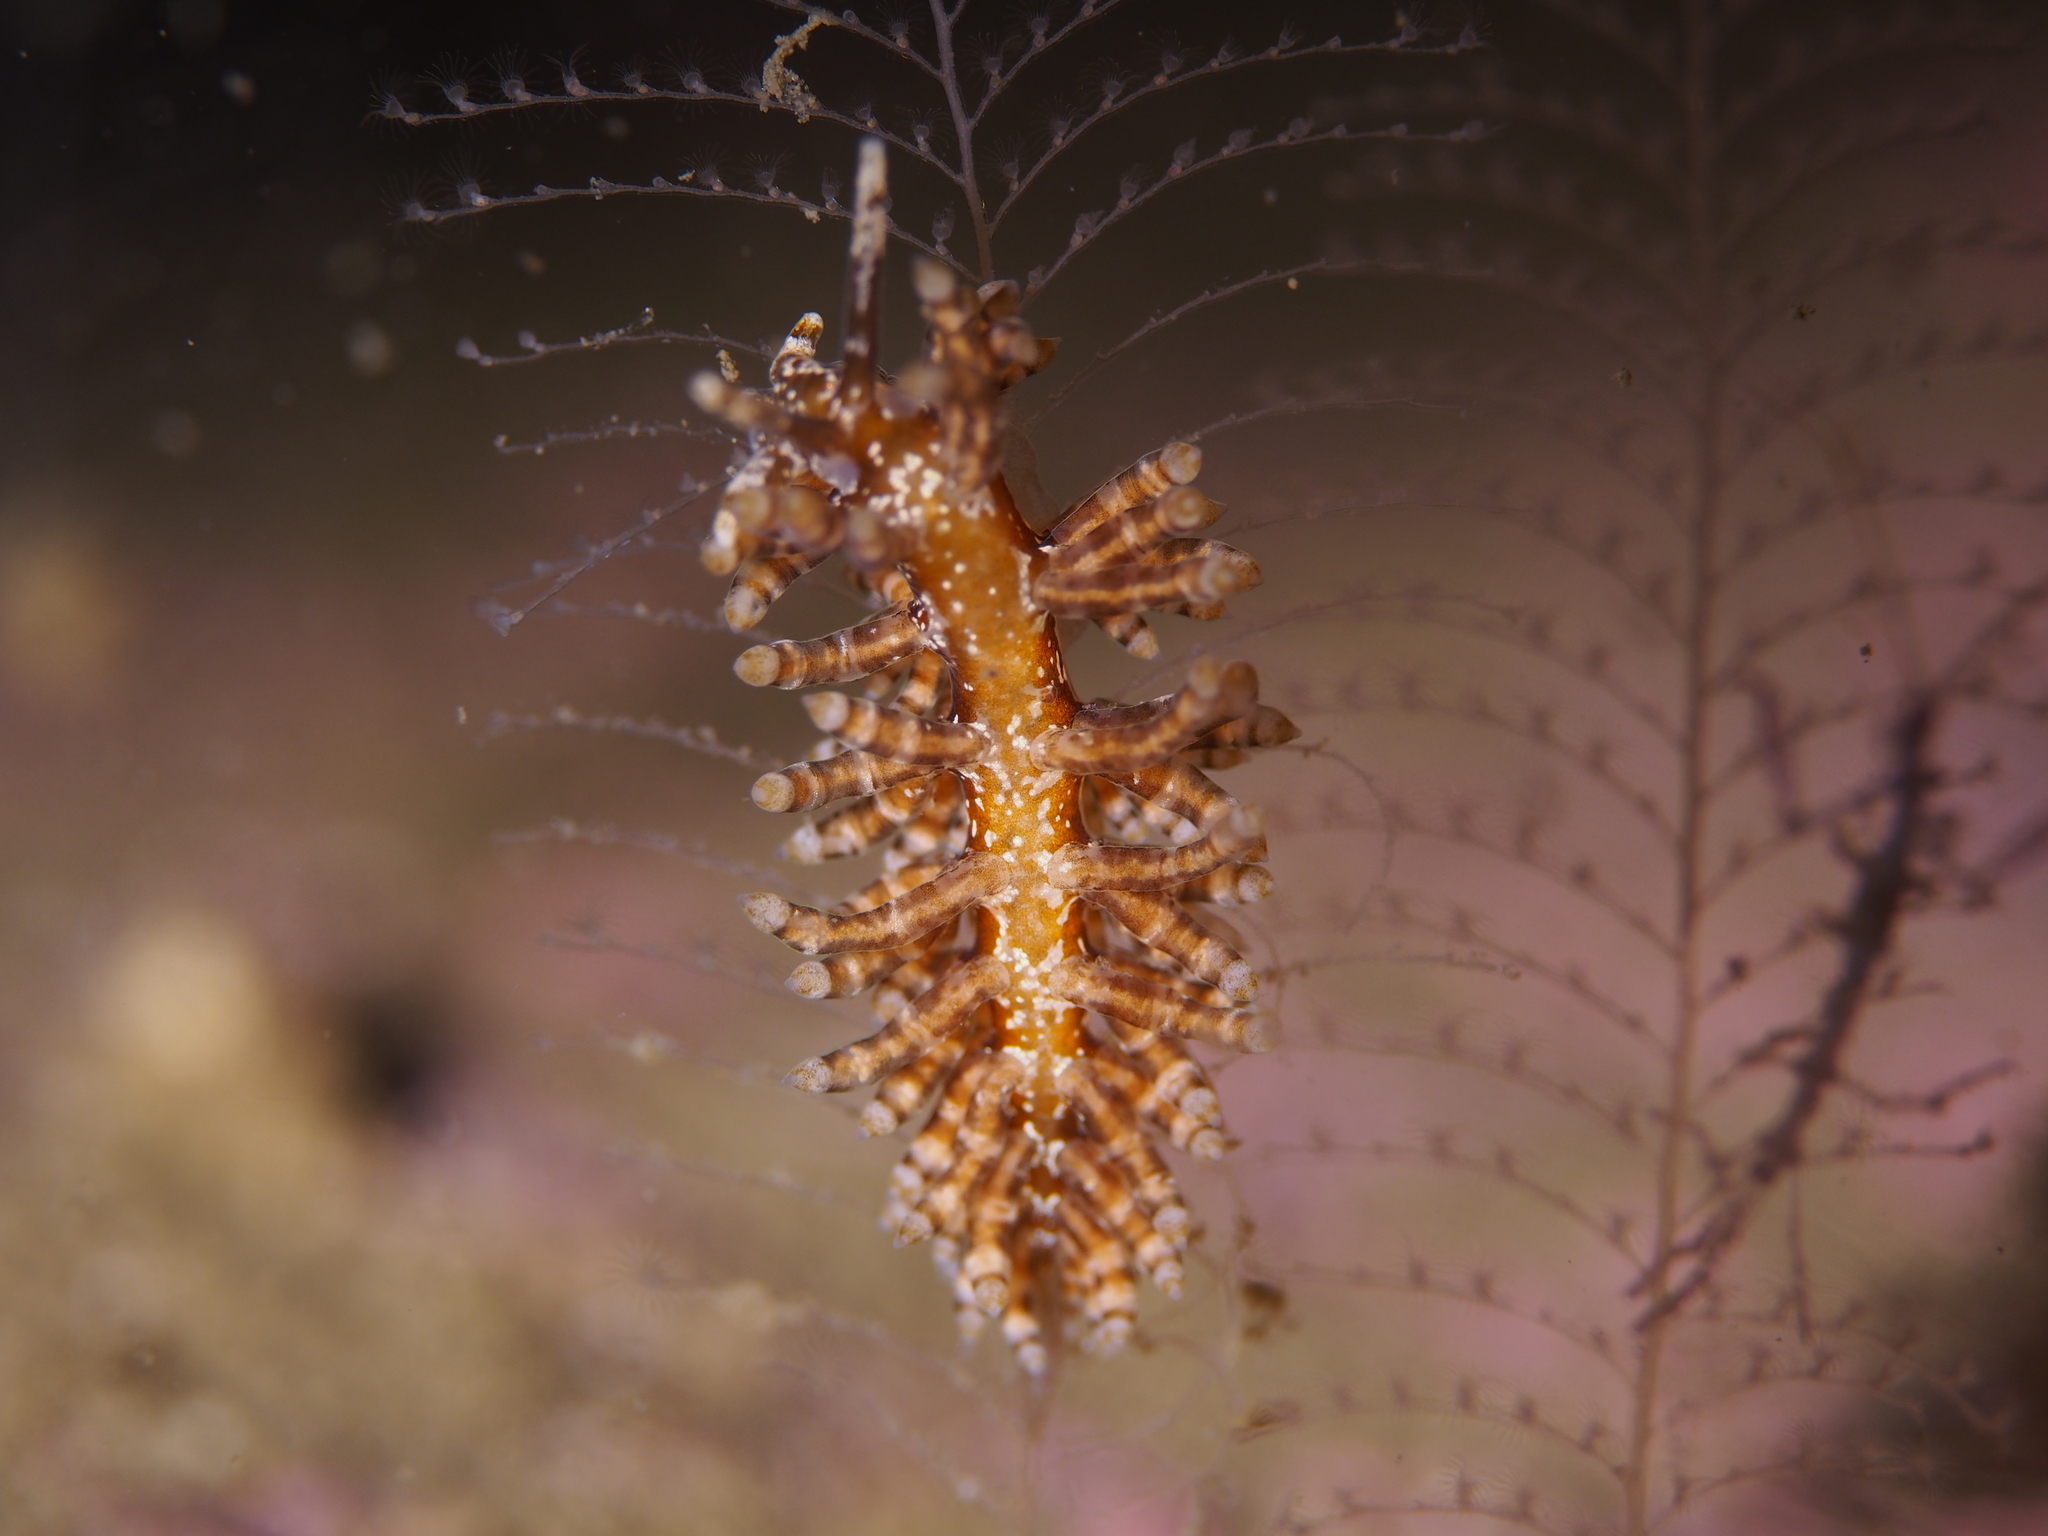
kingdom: Animalia
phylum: Mollusca
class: Gastropoda
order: Nudibranchia
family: Eubranchidae
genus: Eubranchus
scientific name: Eubranchus vittatus
